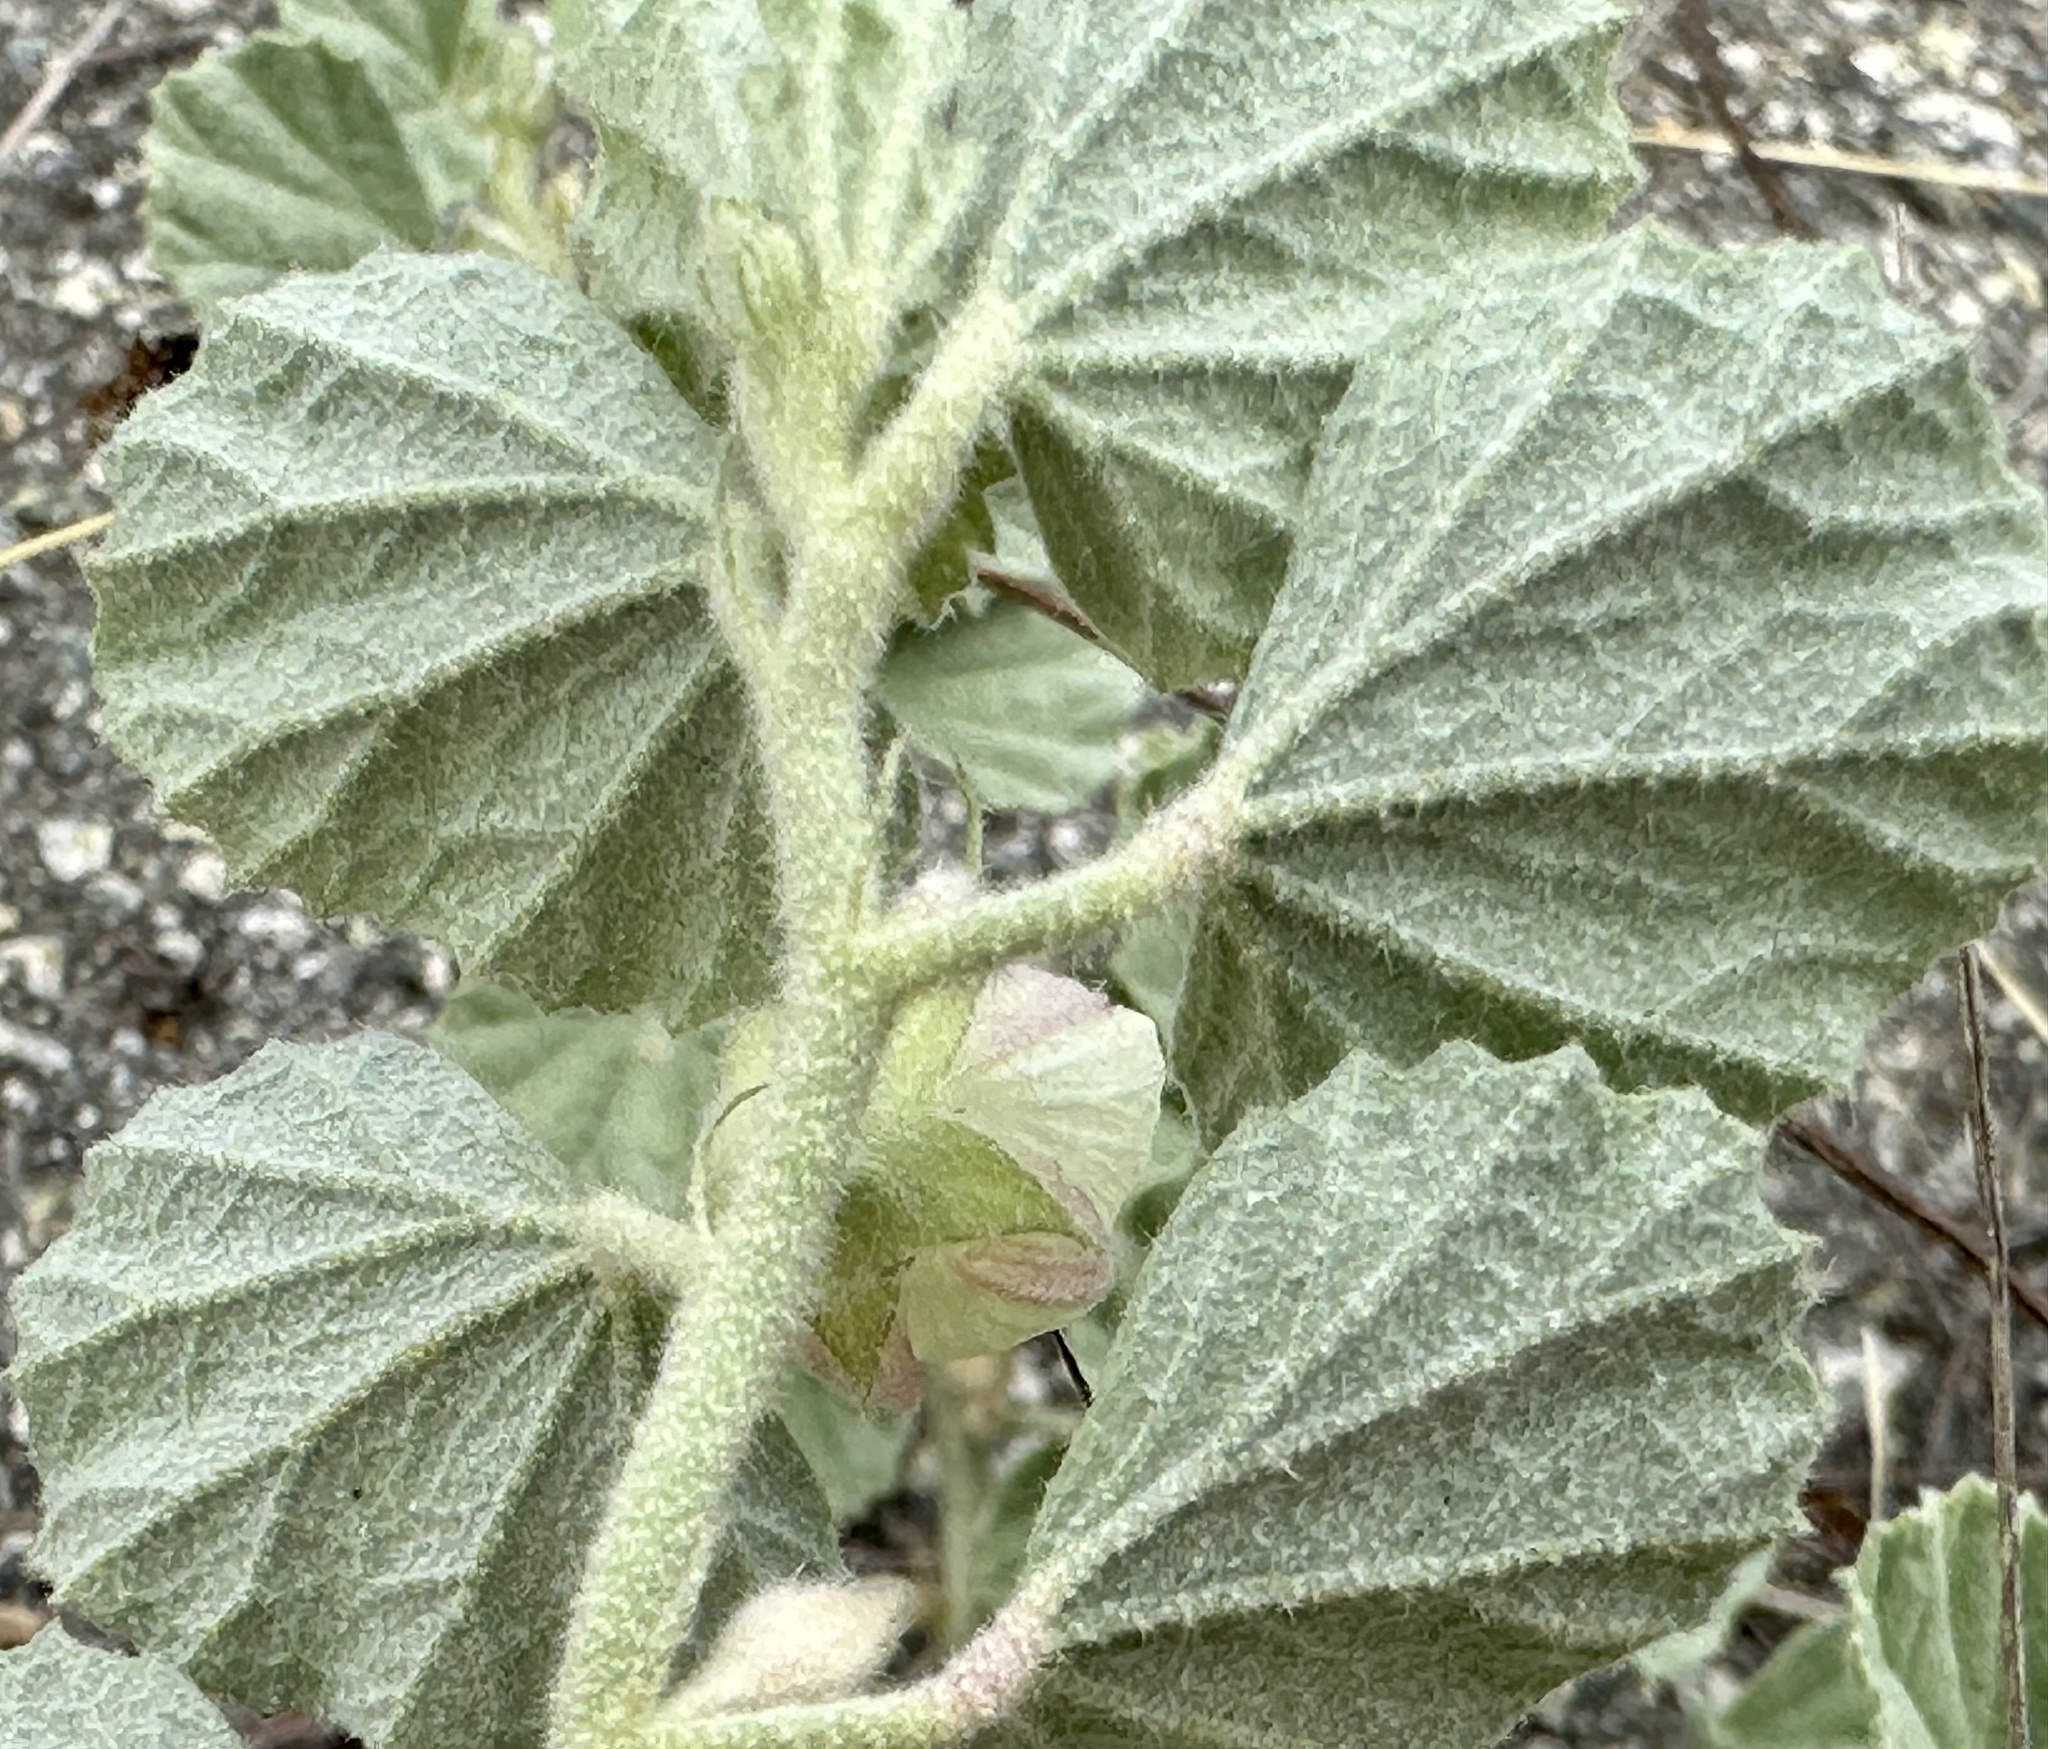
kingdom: Plantae
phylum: Tracheophyta
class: Magnoliopsida
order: Malvales
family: Malvaceae
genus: Malvella
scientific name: Malvella leprosa
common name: Alkali-mallow
